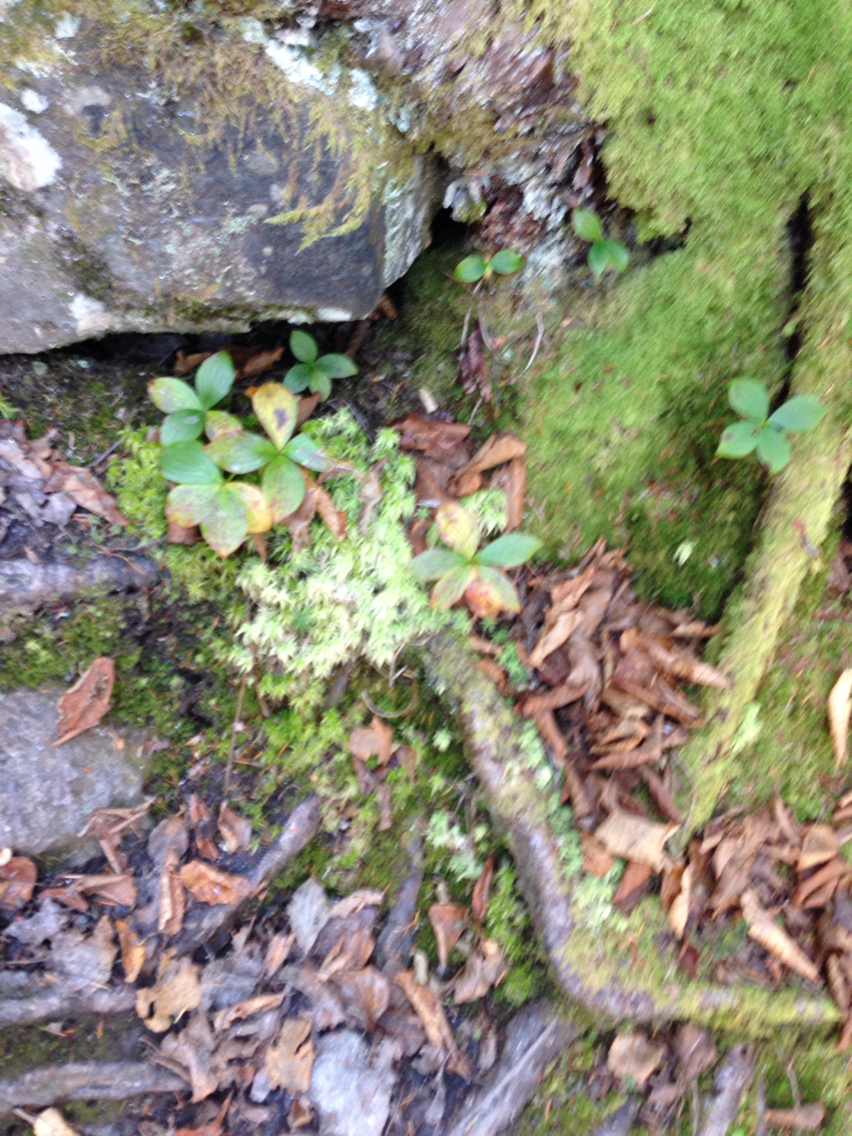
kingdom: Plantae
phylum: Tracheophyta
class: Magnoliopsida
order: Cornales
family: Cornaceae
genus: Cornus
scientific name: Cornus canadensis
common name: Creeping dogwood
